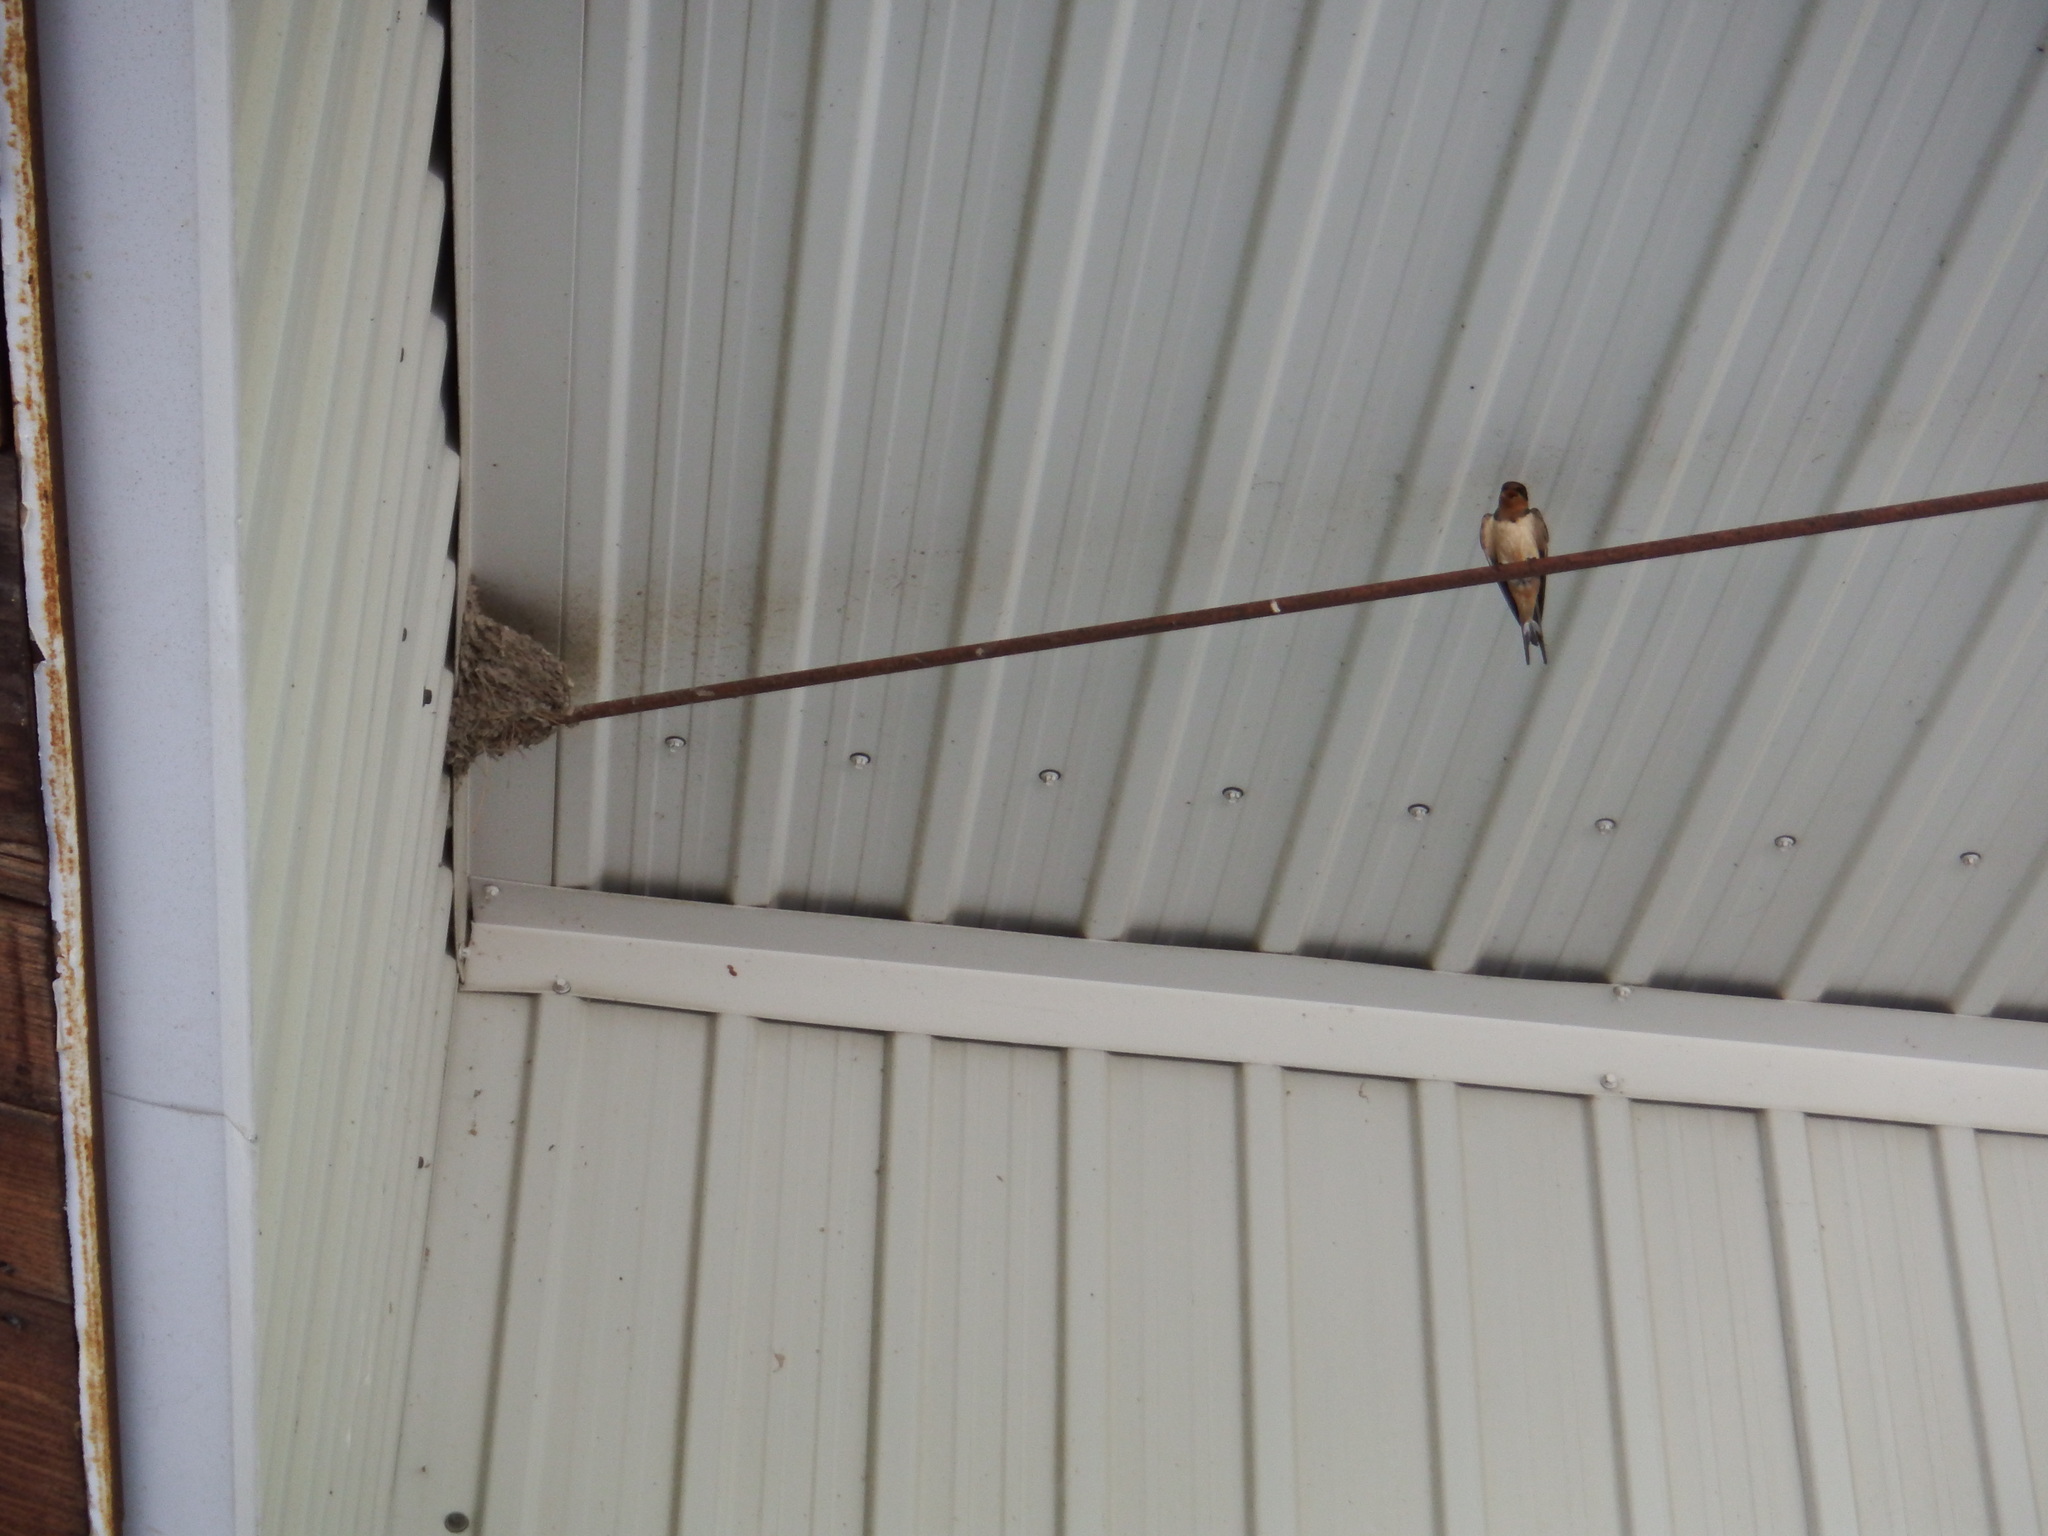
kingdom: Animalia
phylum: Chordata
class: Aves
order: Passeriformes
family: Hirundinidae
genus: Hirundo
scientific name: Hirundo rustica
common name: Barn swallow
